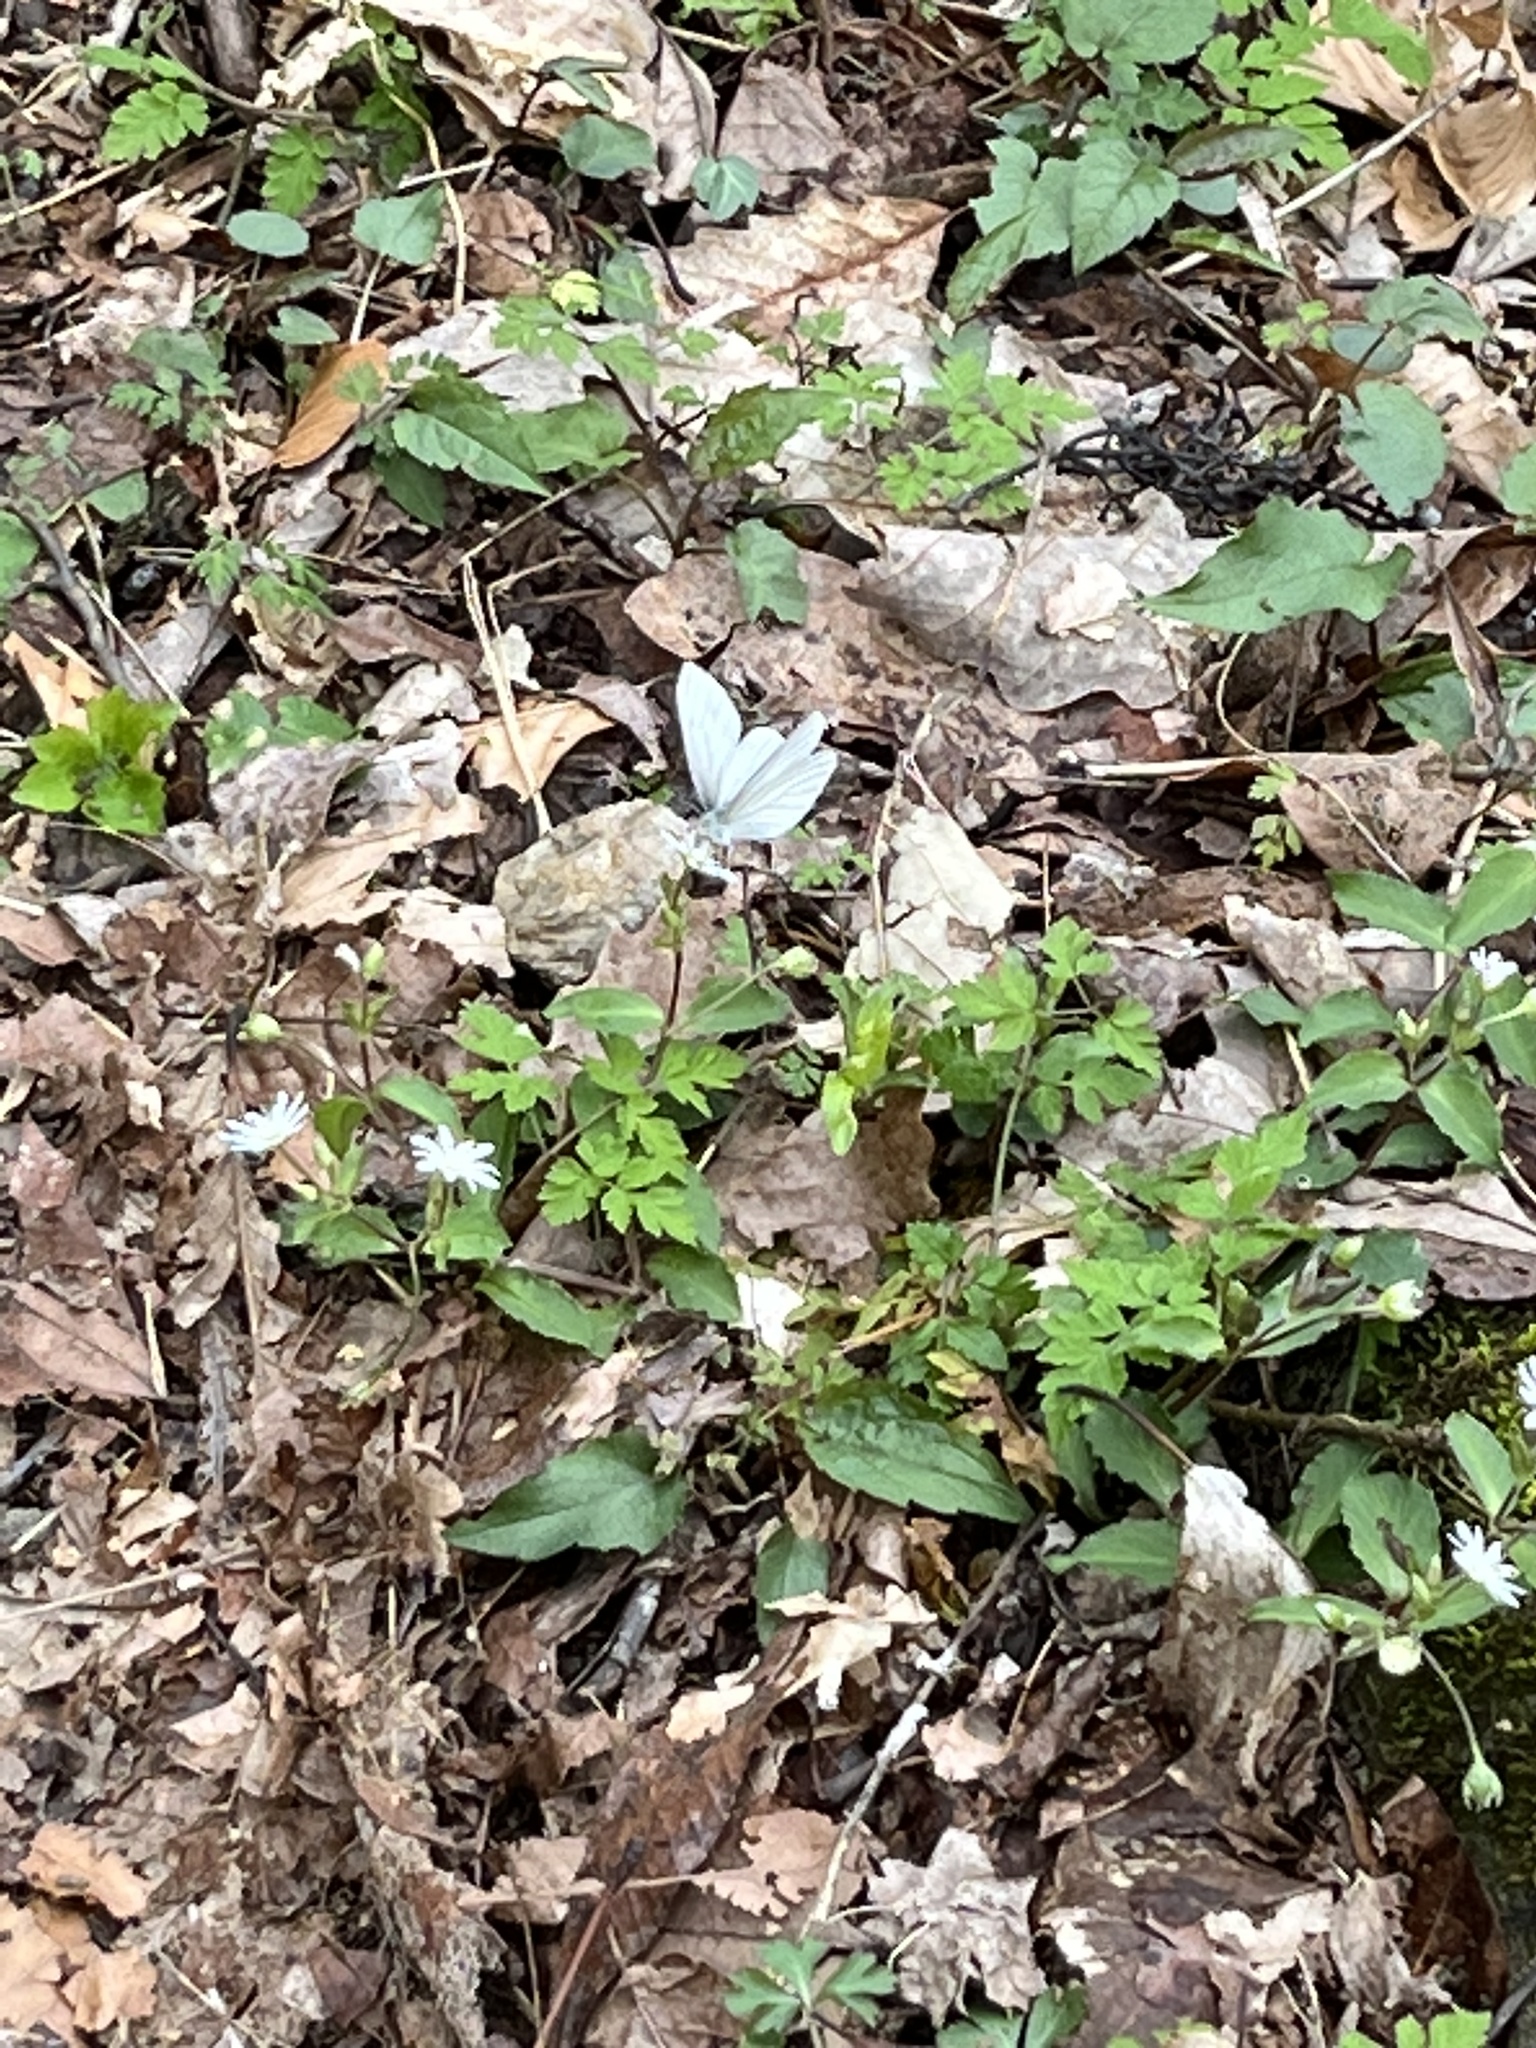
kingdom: Animalia
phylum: Arthropoda
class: Insecta
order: Lepidoptera
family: Pieridae
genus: Pieris
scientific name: Pieris virginiensis
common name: West virginia white
